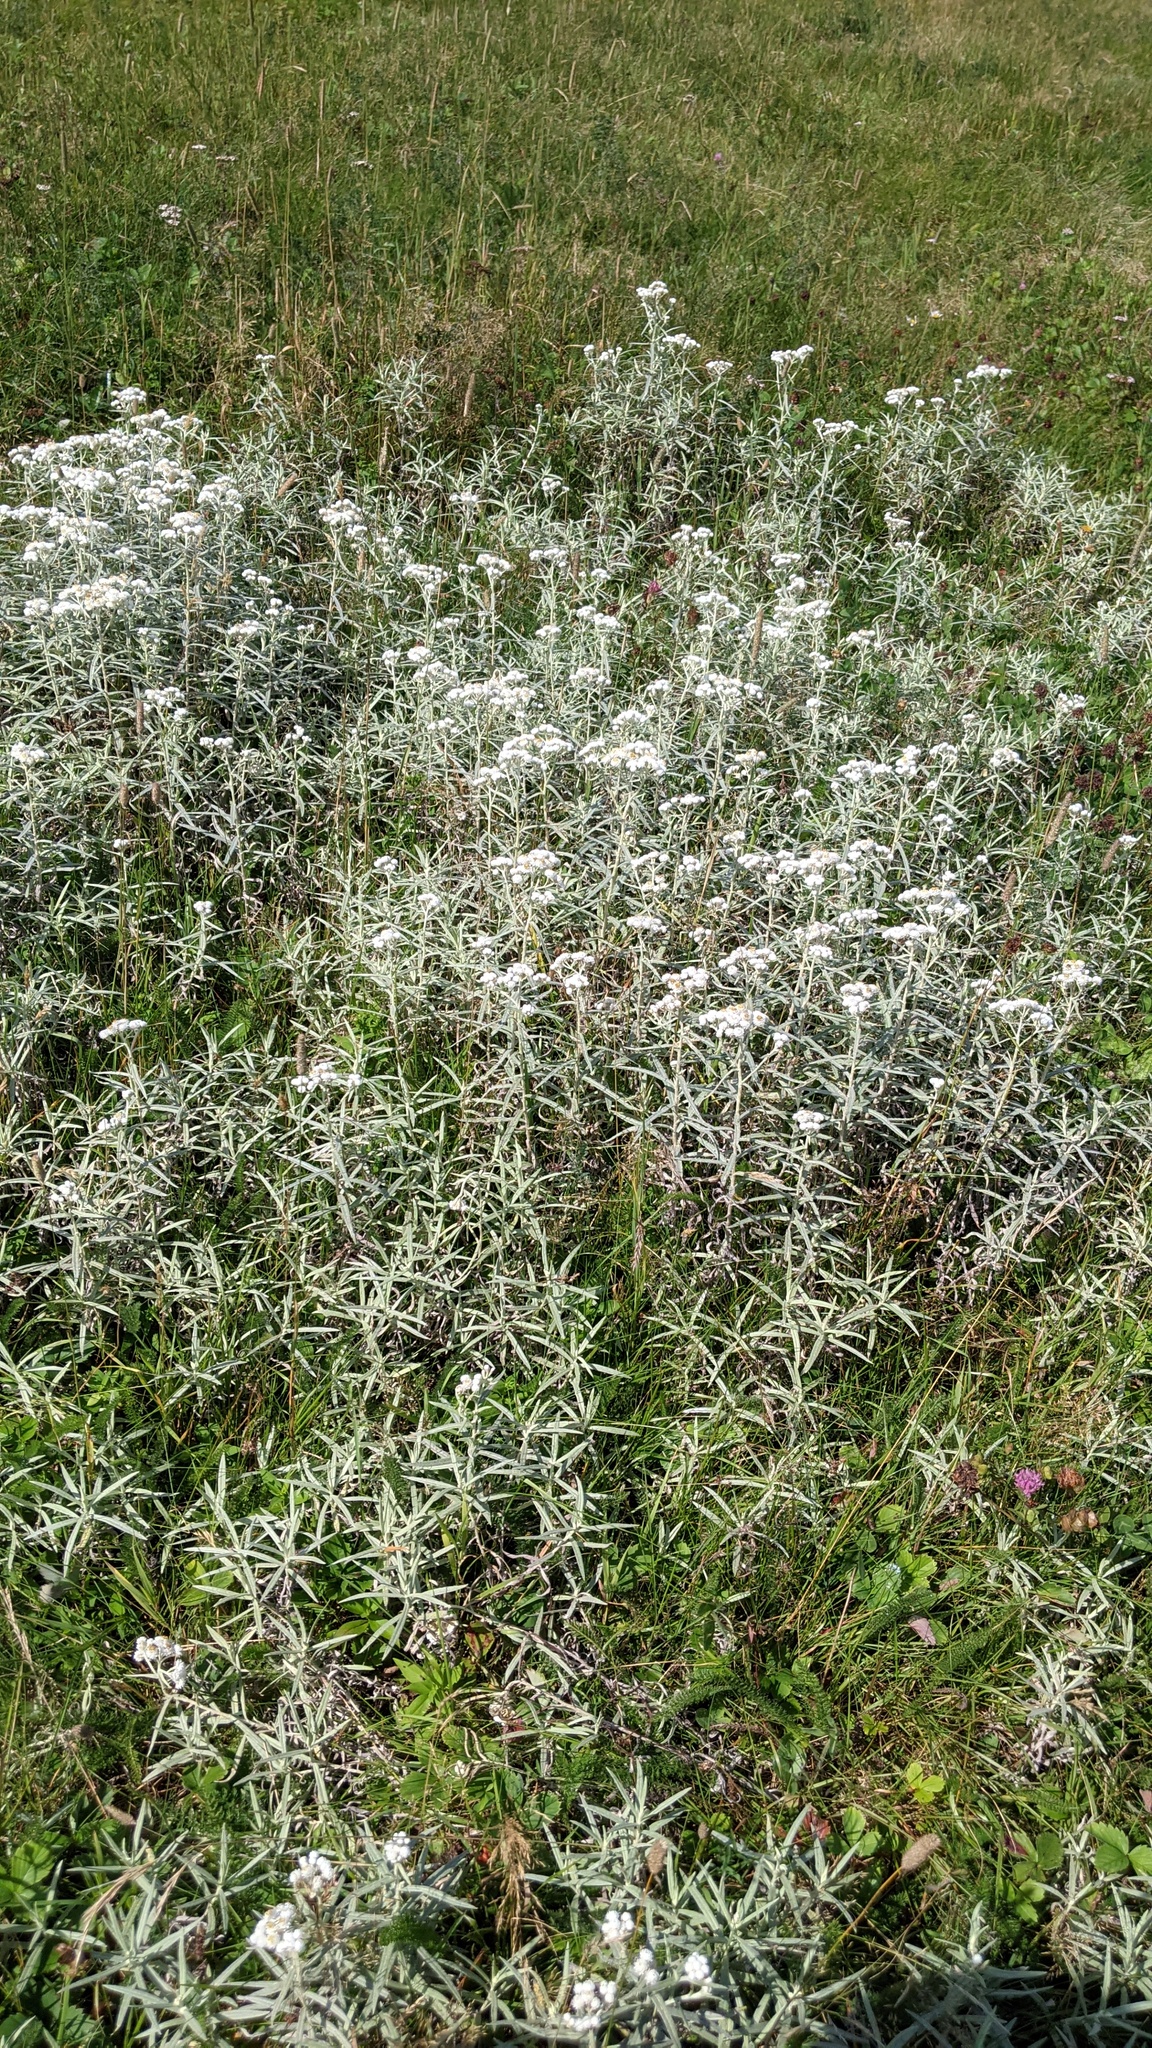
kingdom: Plantae
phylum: Tracheophyta
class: Magnoliopsida
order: Asterales
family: Asteraceae
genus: Anaphalis
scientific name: Anaphalis margaritacea
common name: Pearly everlasting
